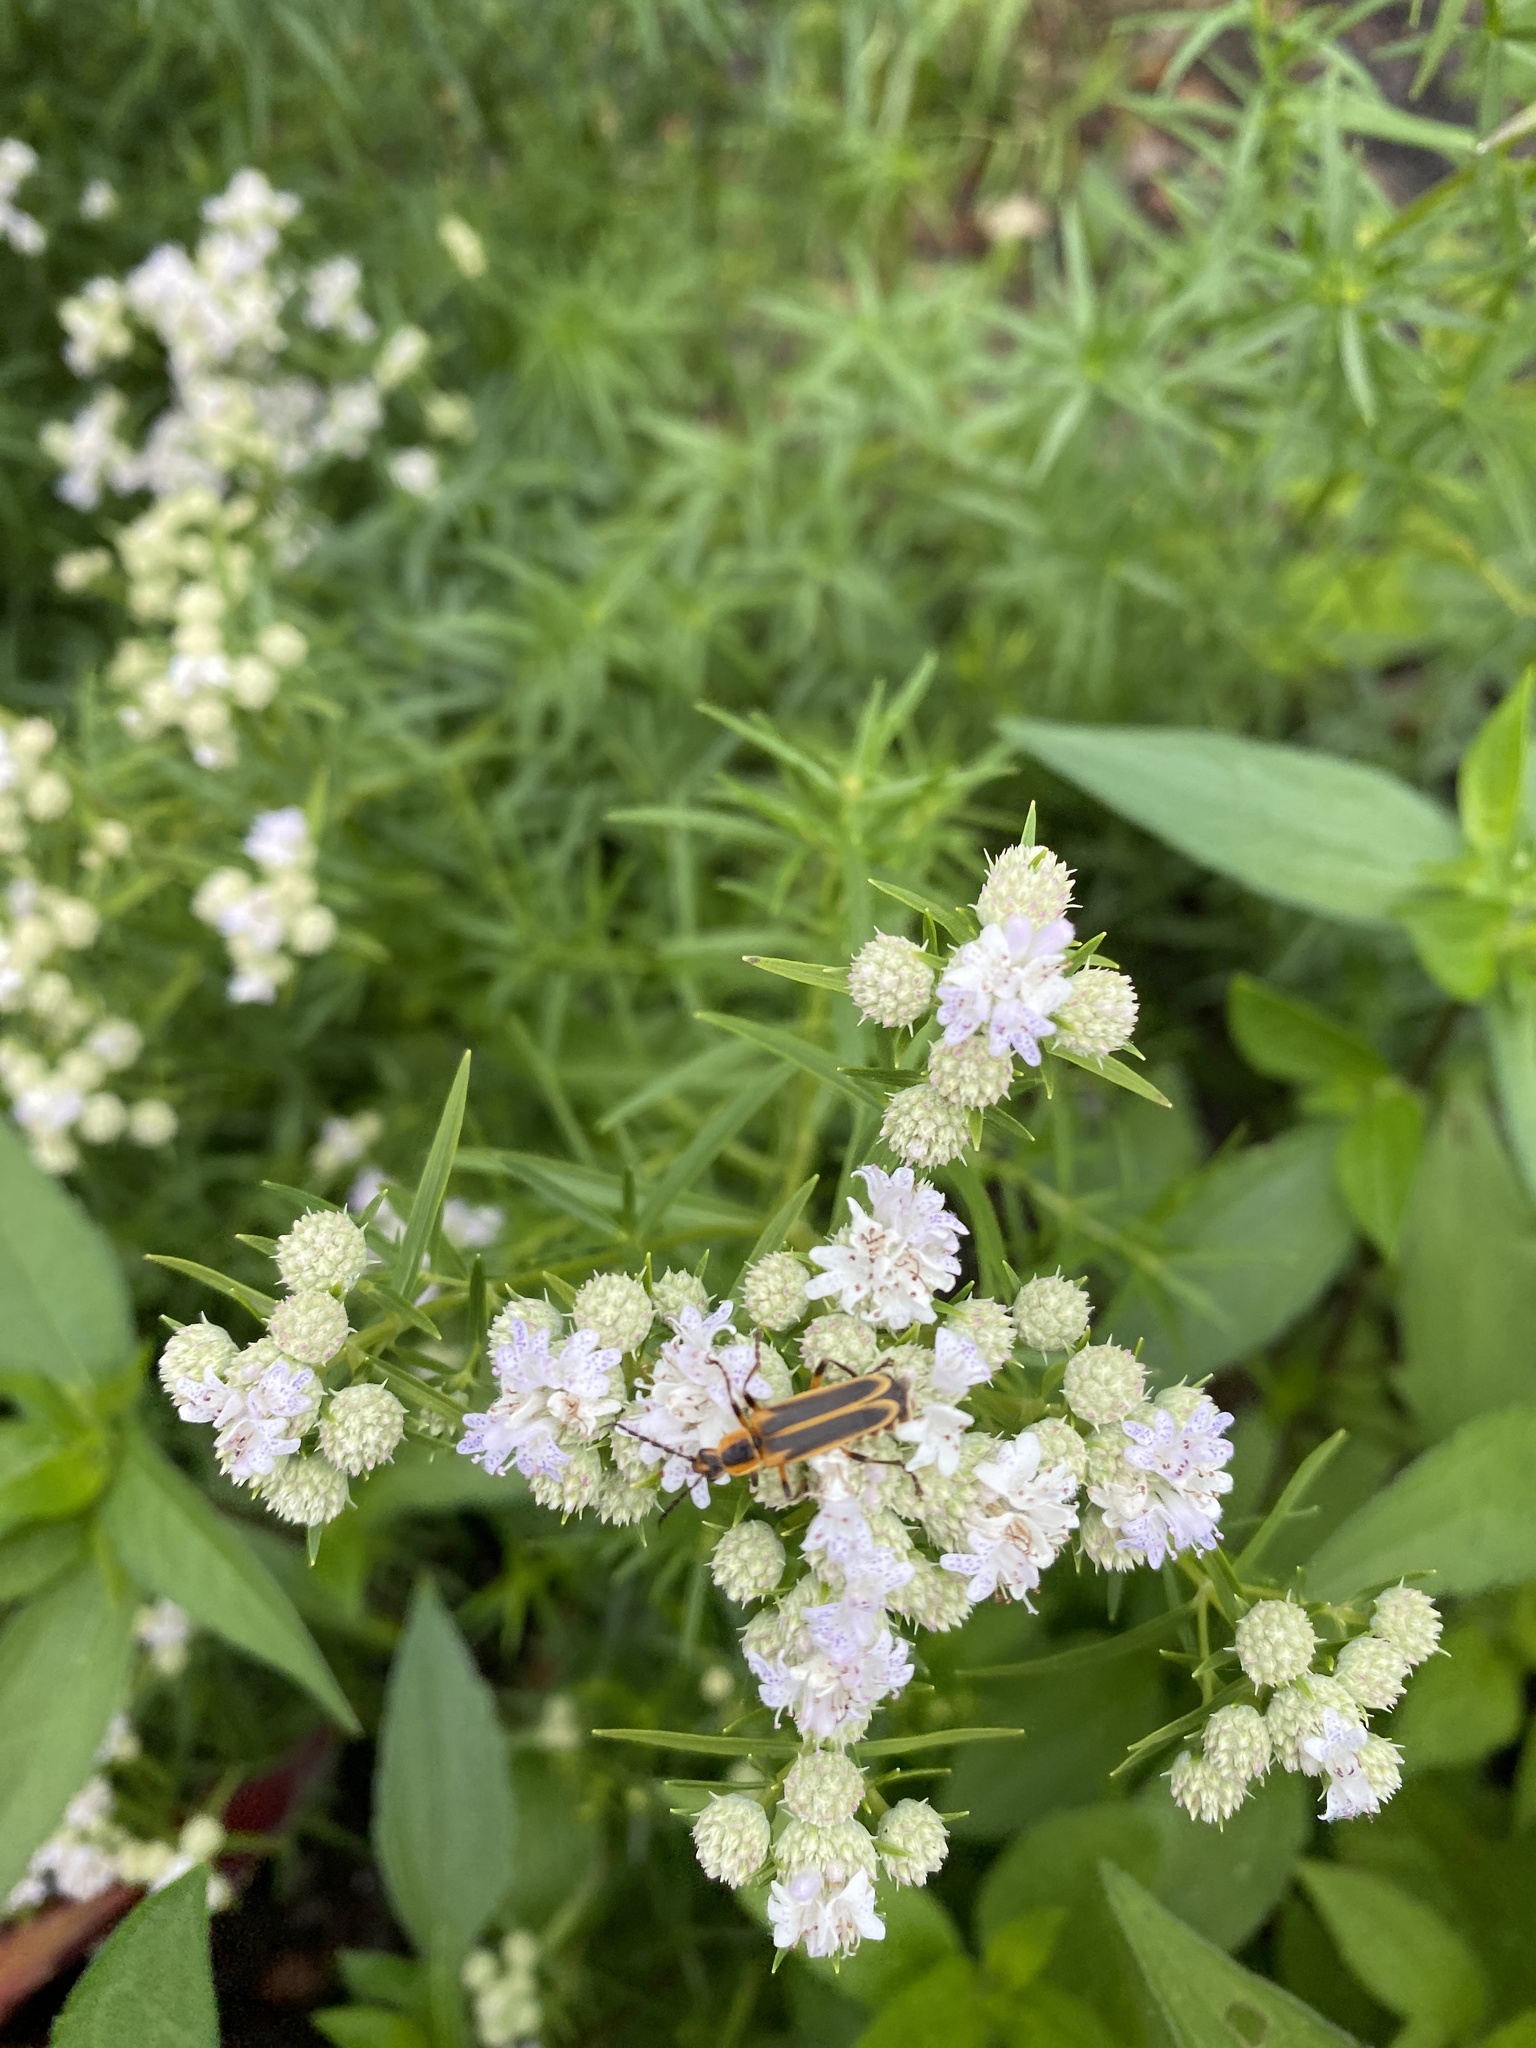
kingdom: Animalia
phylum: Arthropoda
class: Insecta
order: Coleoptera
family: Cantharidae
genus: Chauliognathus
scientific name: Chauliognathus marginatus
